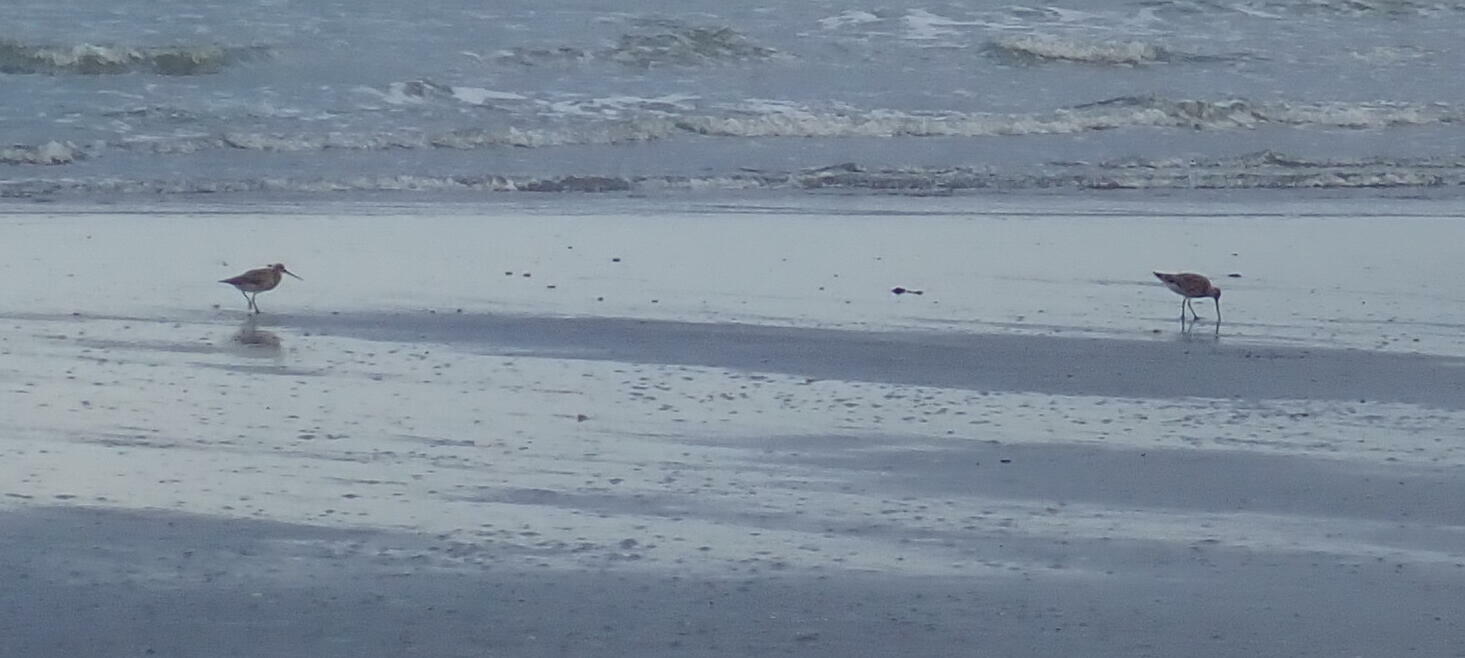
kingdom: Animalia
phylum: Chordata
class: Aves
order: Charadriiformes
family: Scolopacidae
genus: Limosa
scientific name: Limosa lapponica
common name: Bar-tailed godwit
